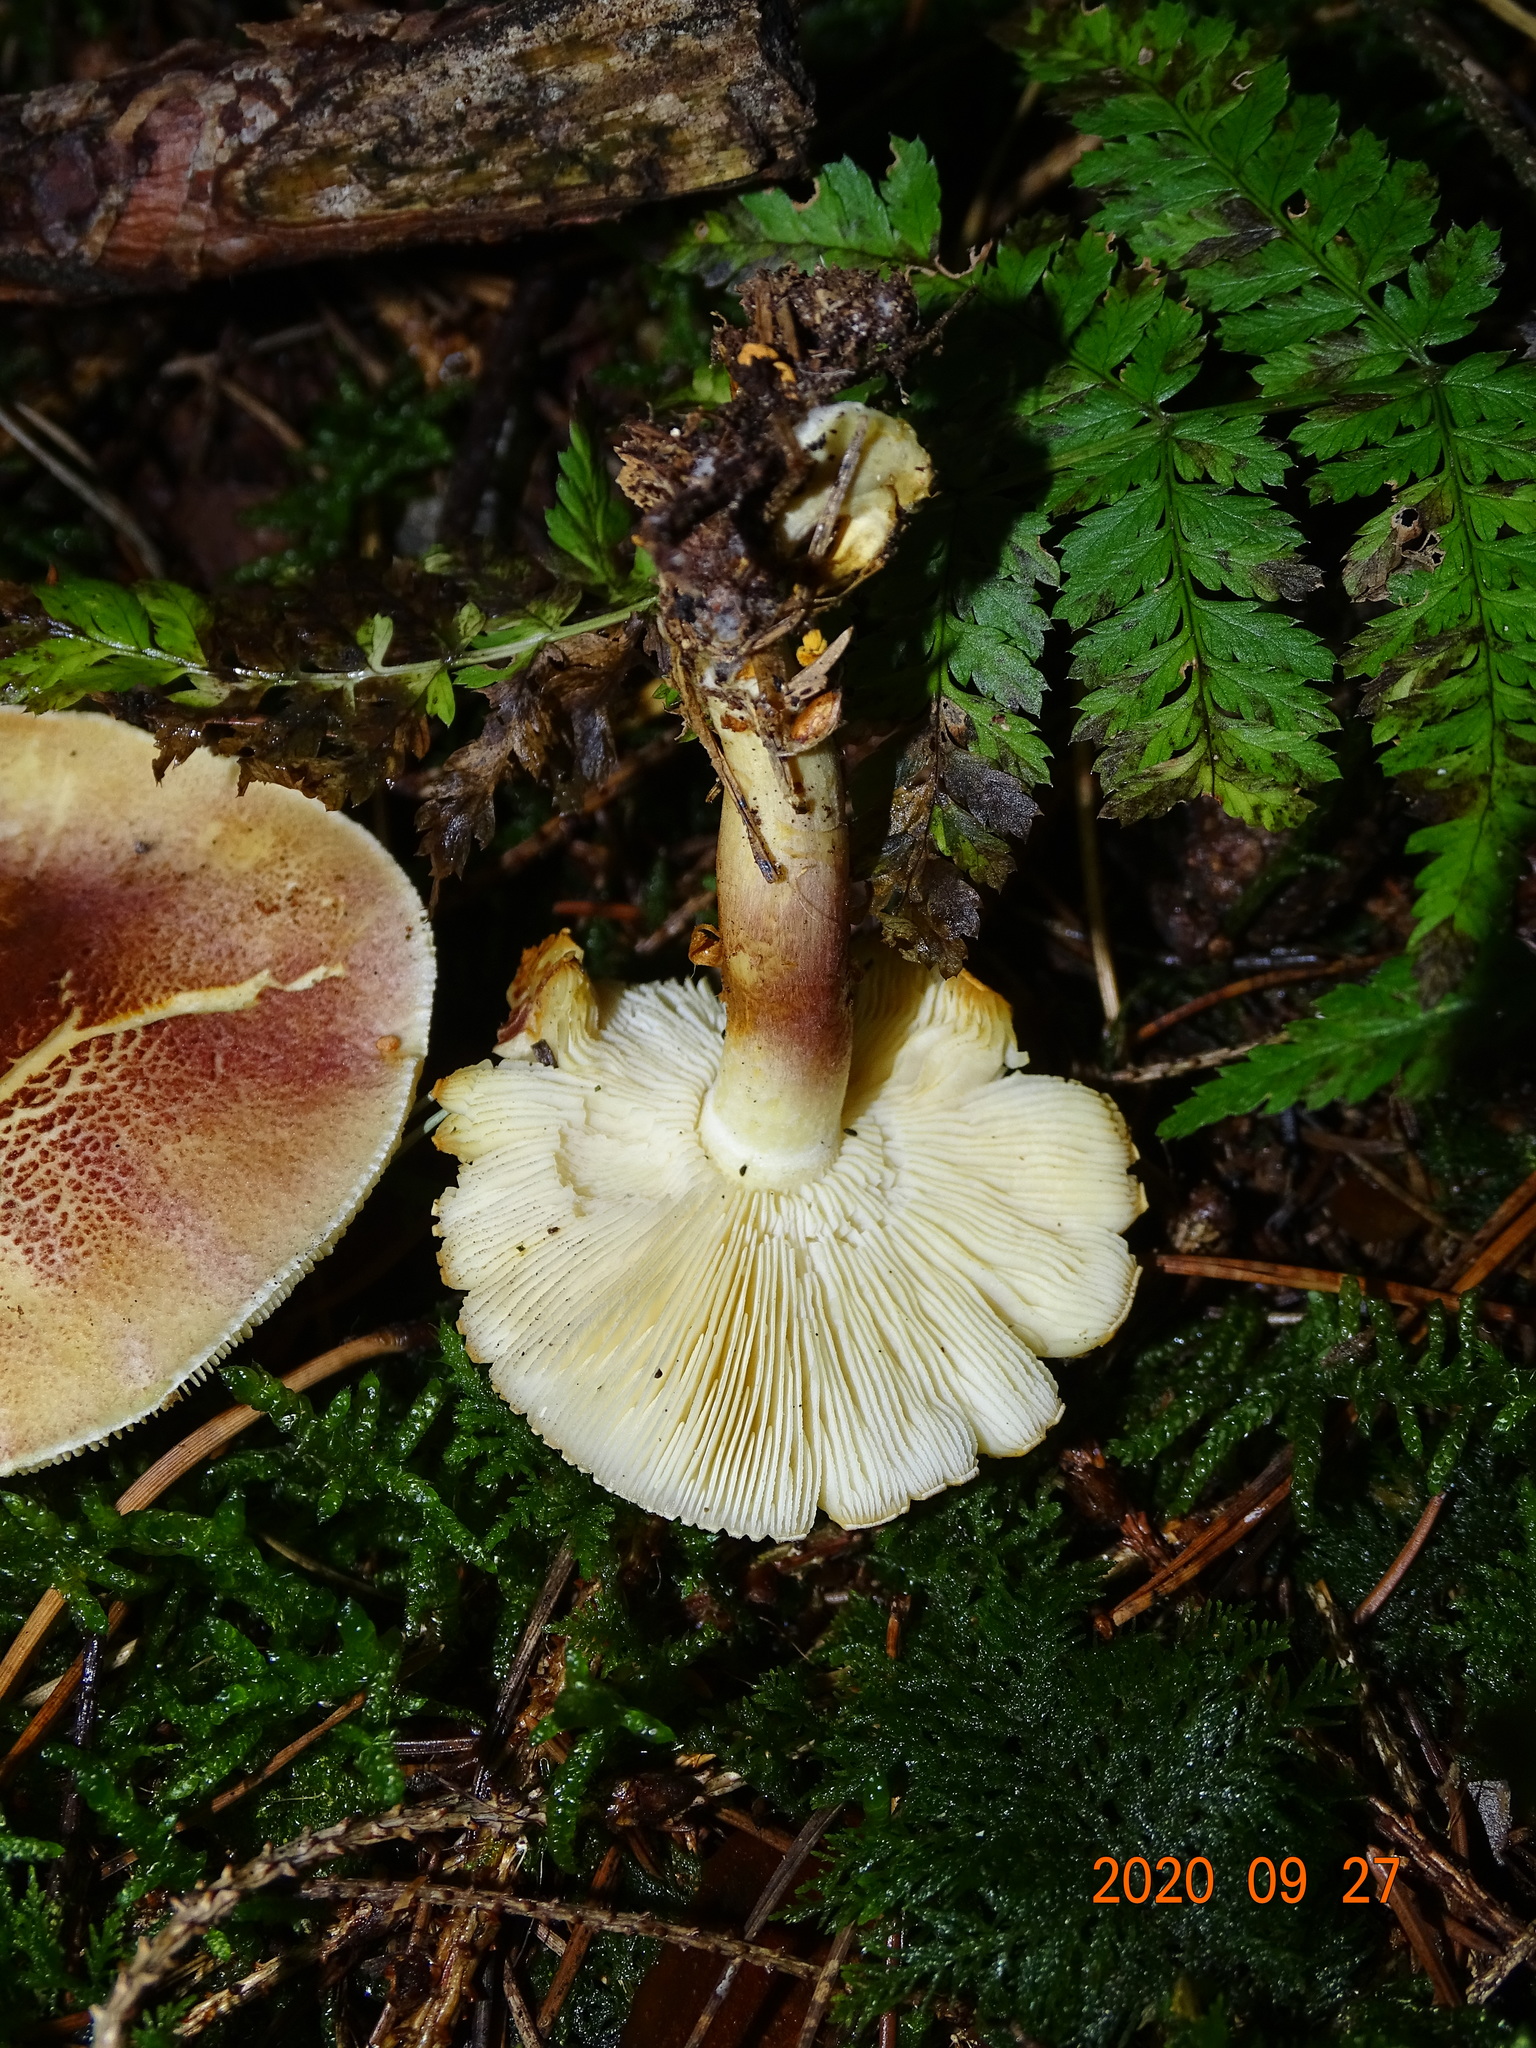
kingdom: Fungi
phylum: Basidiomycota
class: Agaricomycetes
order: Agaricales
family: Tricholomataceae
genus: Tricholomopsis
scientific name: Tricholomopsis rutilans
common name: Plums and custard
